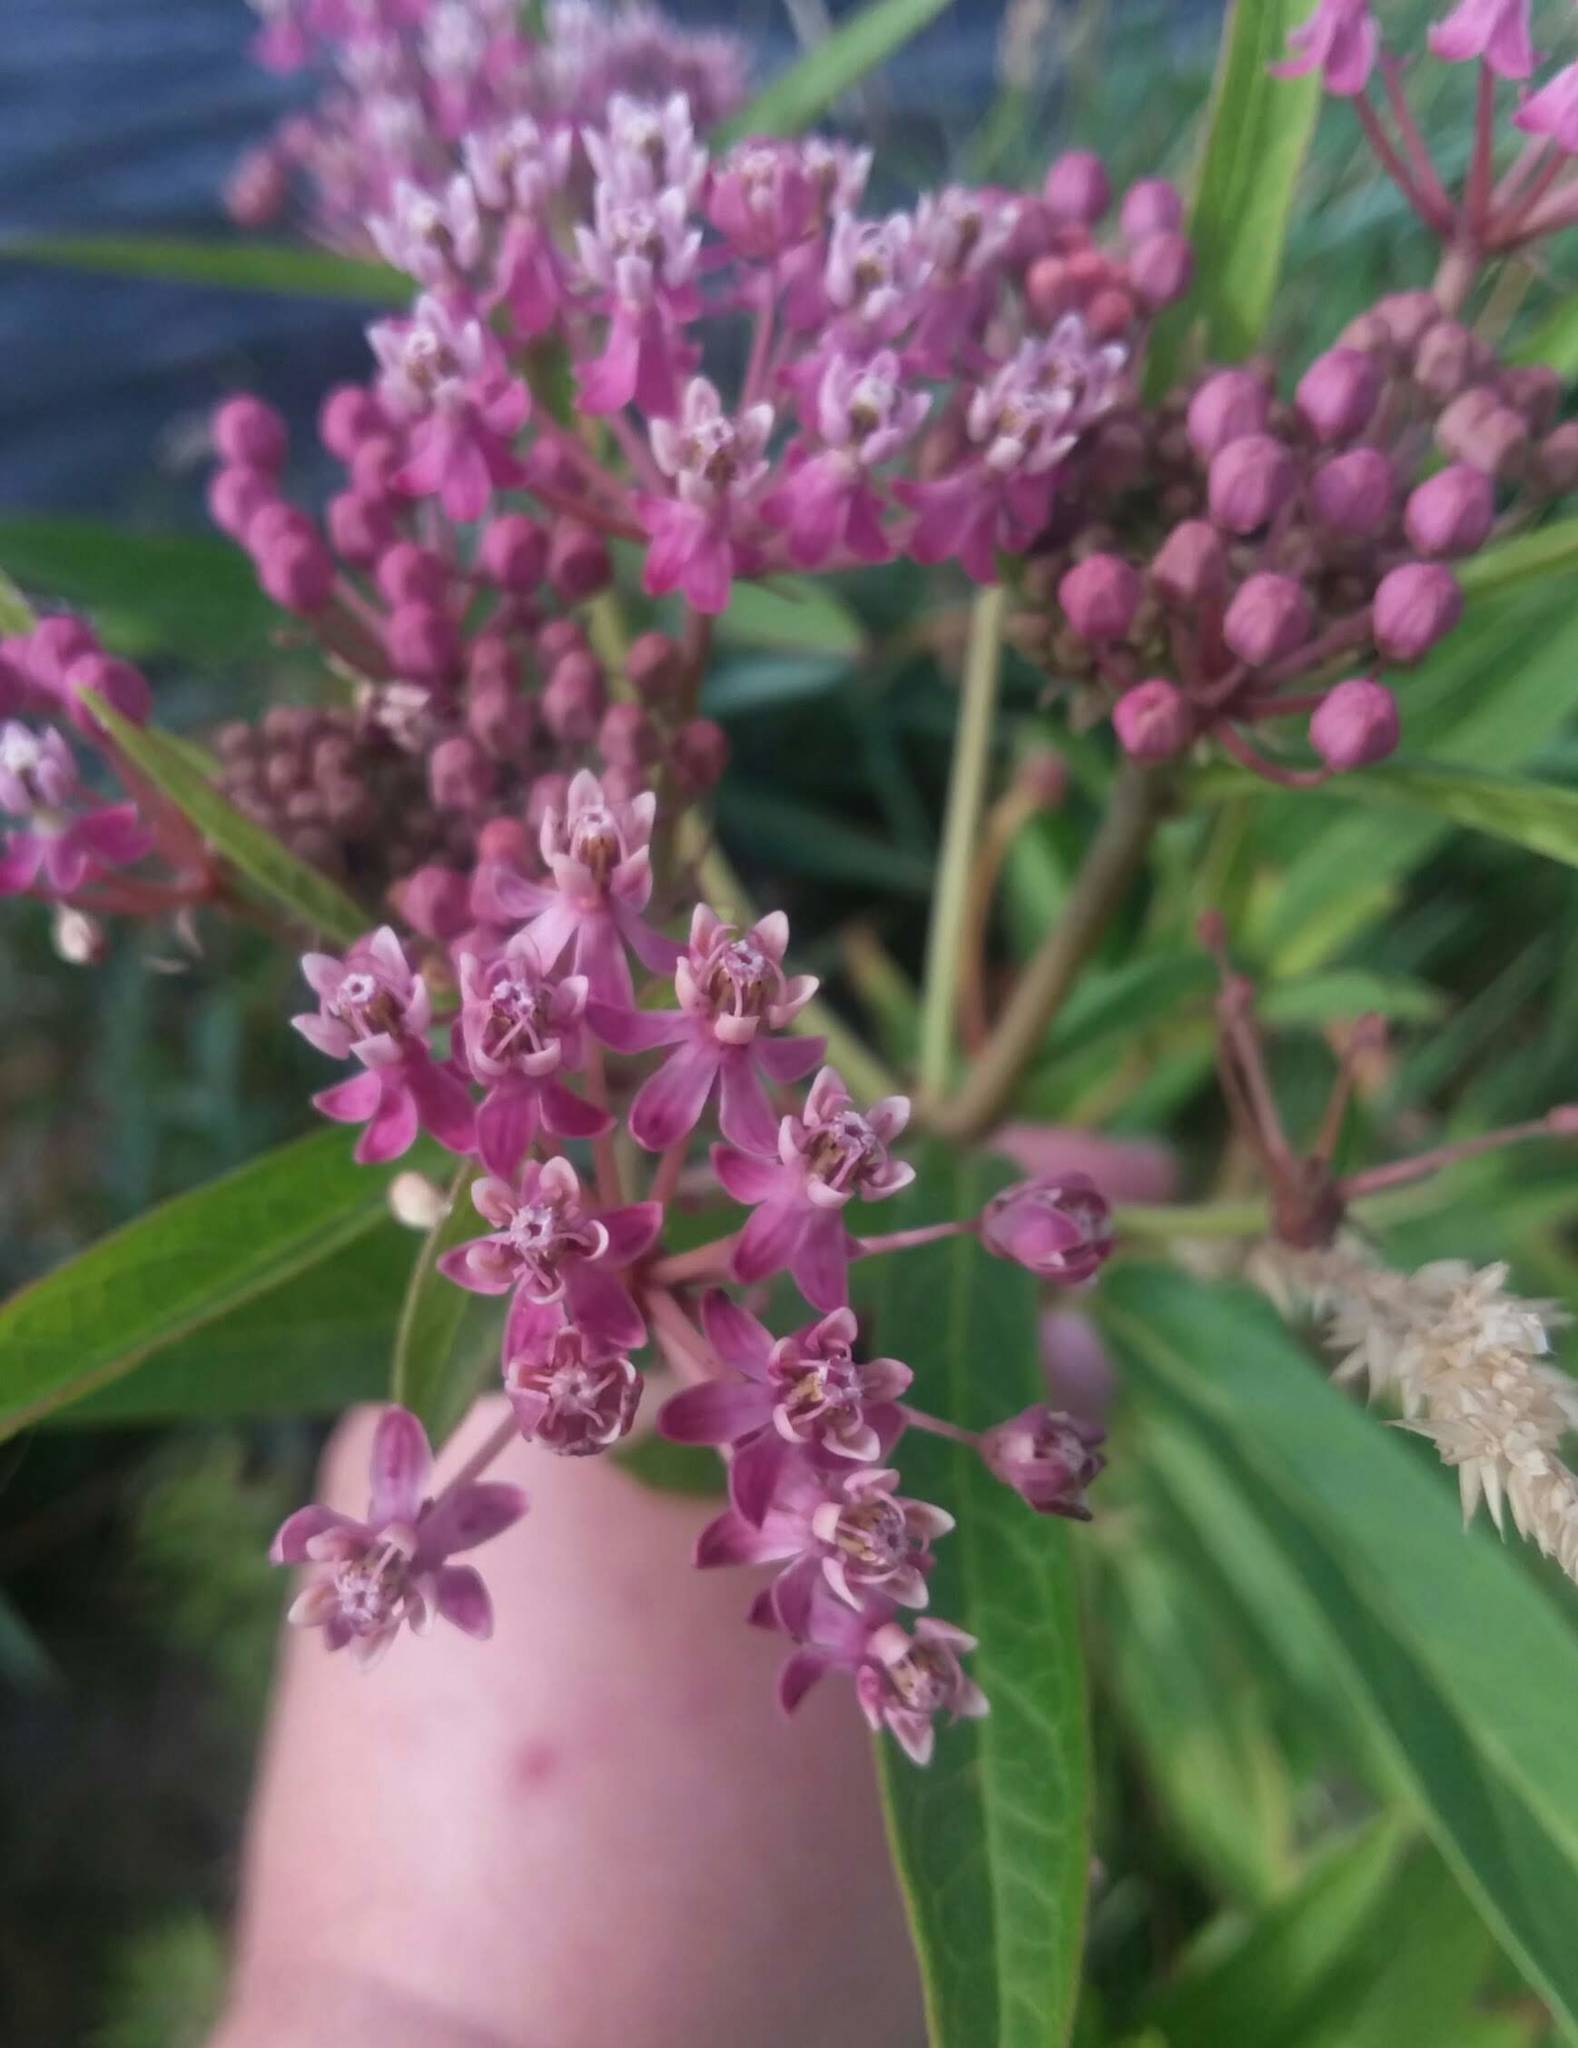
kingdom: Plantae
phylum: Tracheophyta
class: Magnoliopsida
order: Gentianales
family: Apocynaceae
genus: Asclepias
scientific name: Asclepias incarnata
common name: Swamp milkweed
